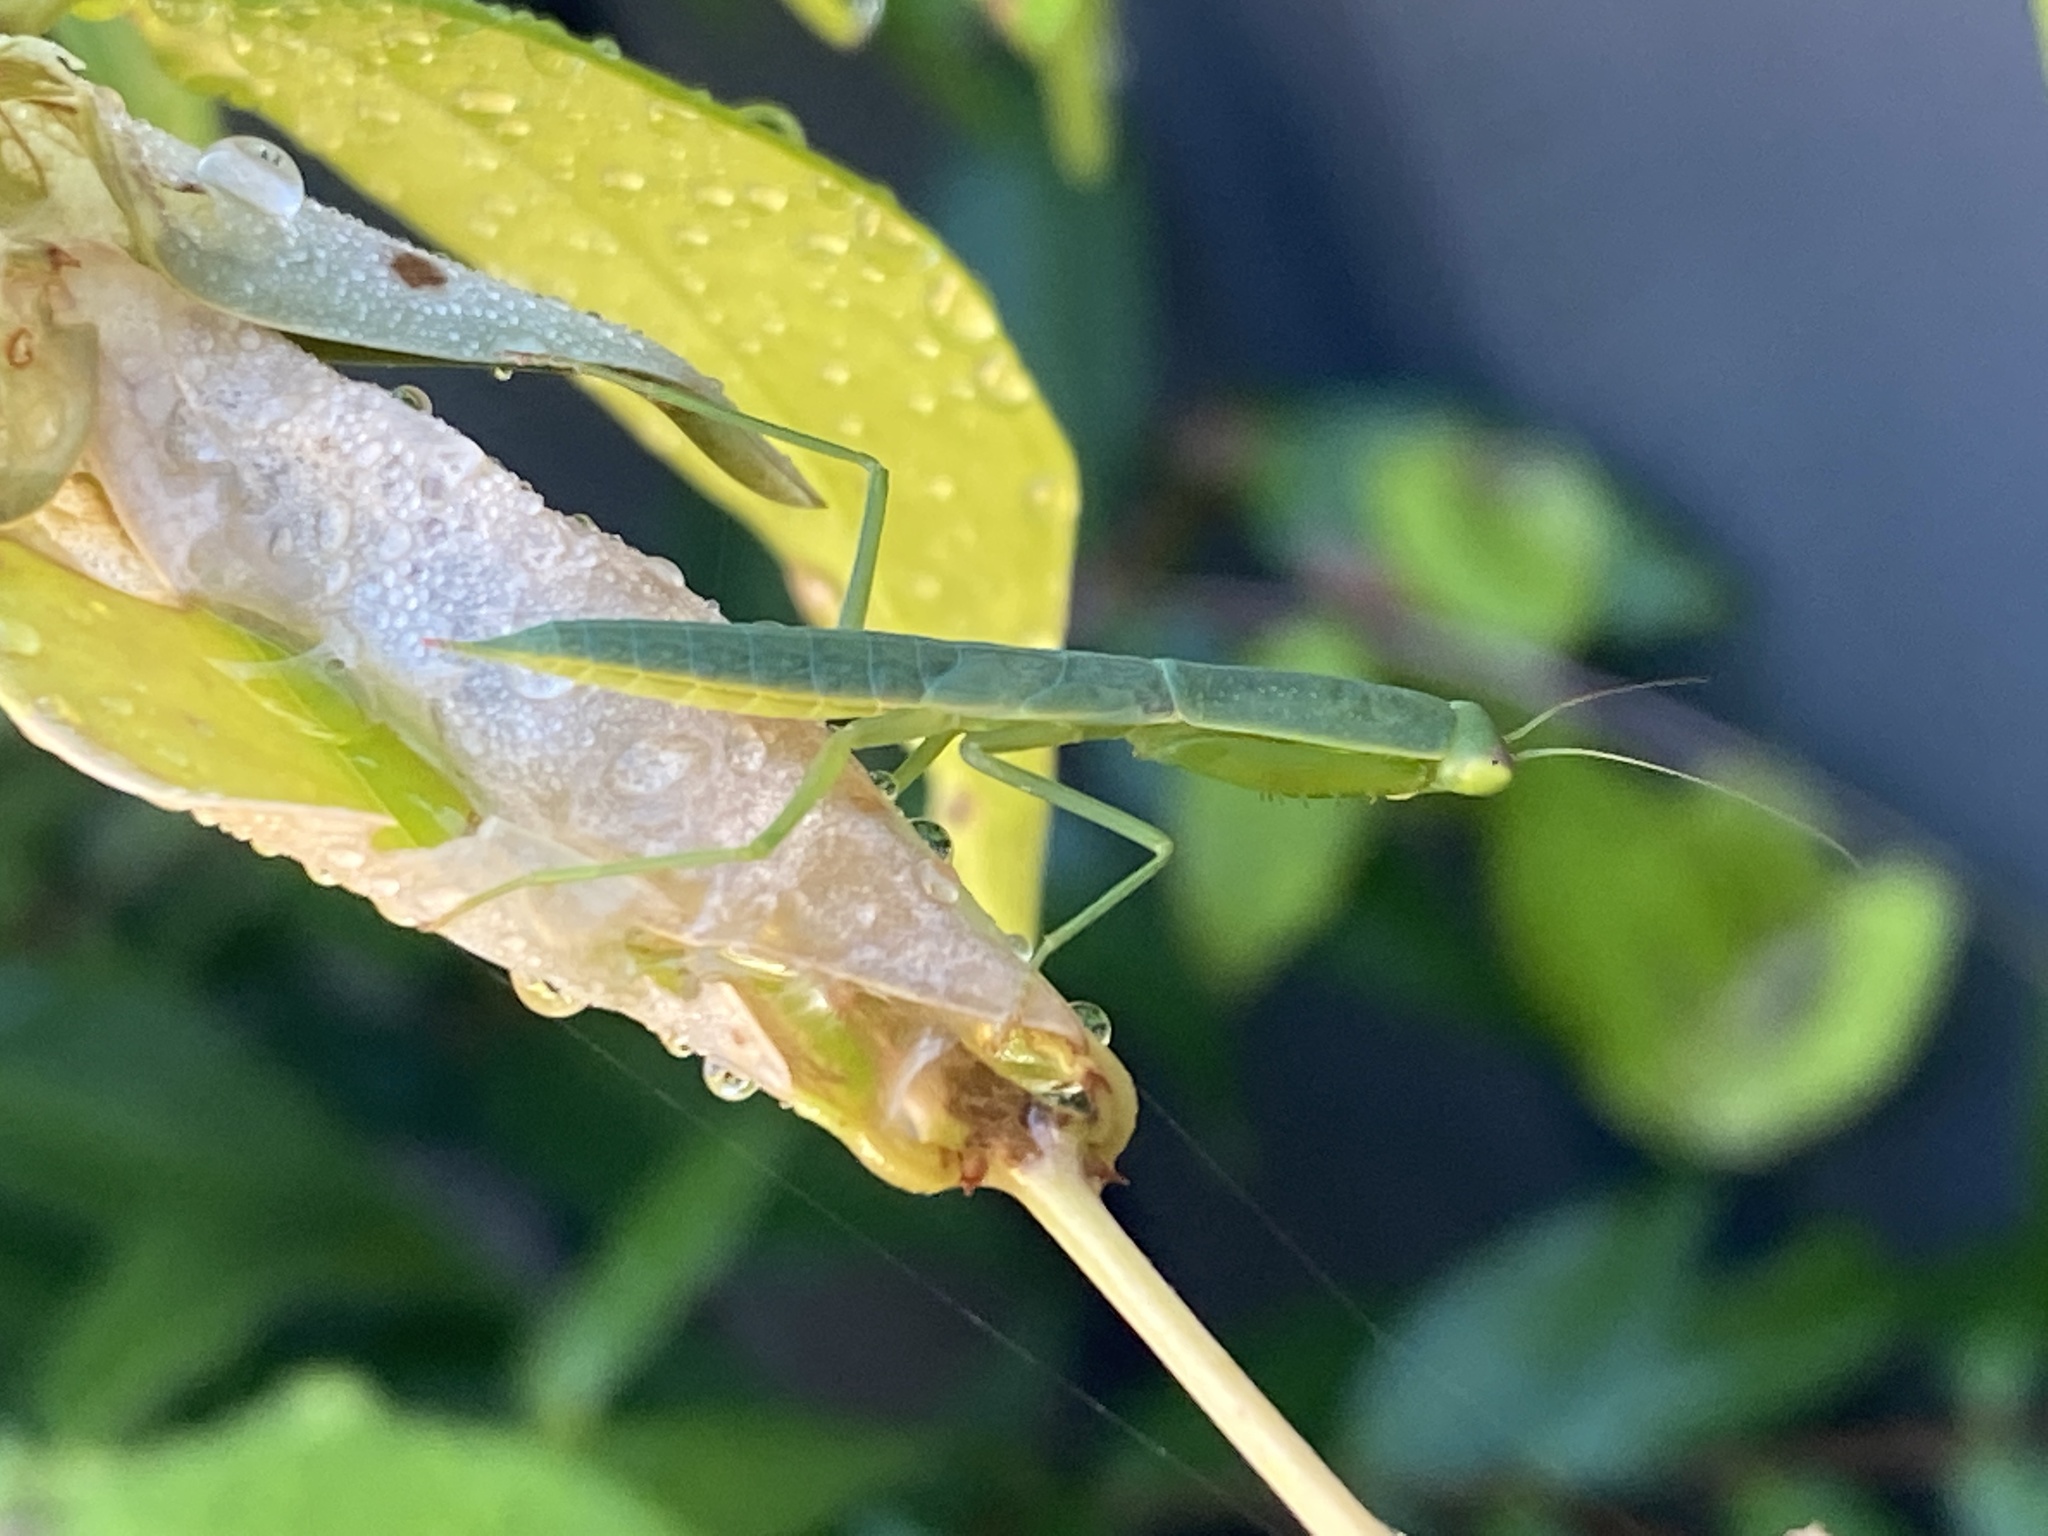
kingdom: Animalia
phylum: Arthropoda
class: Insecta
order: Mantodea
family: Mantidae
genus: Orthodera
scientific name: Orthodera ministralis
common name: Mantis
